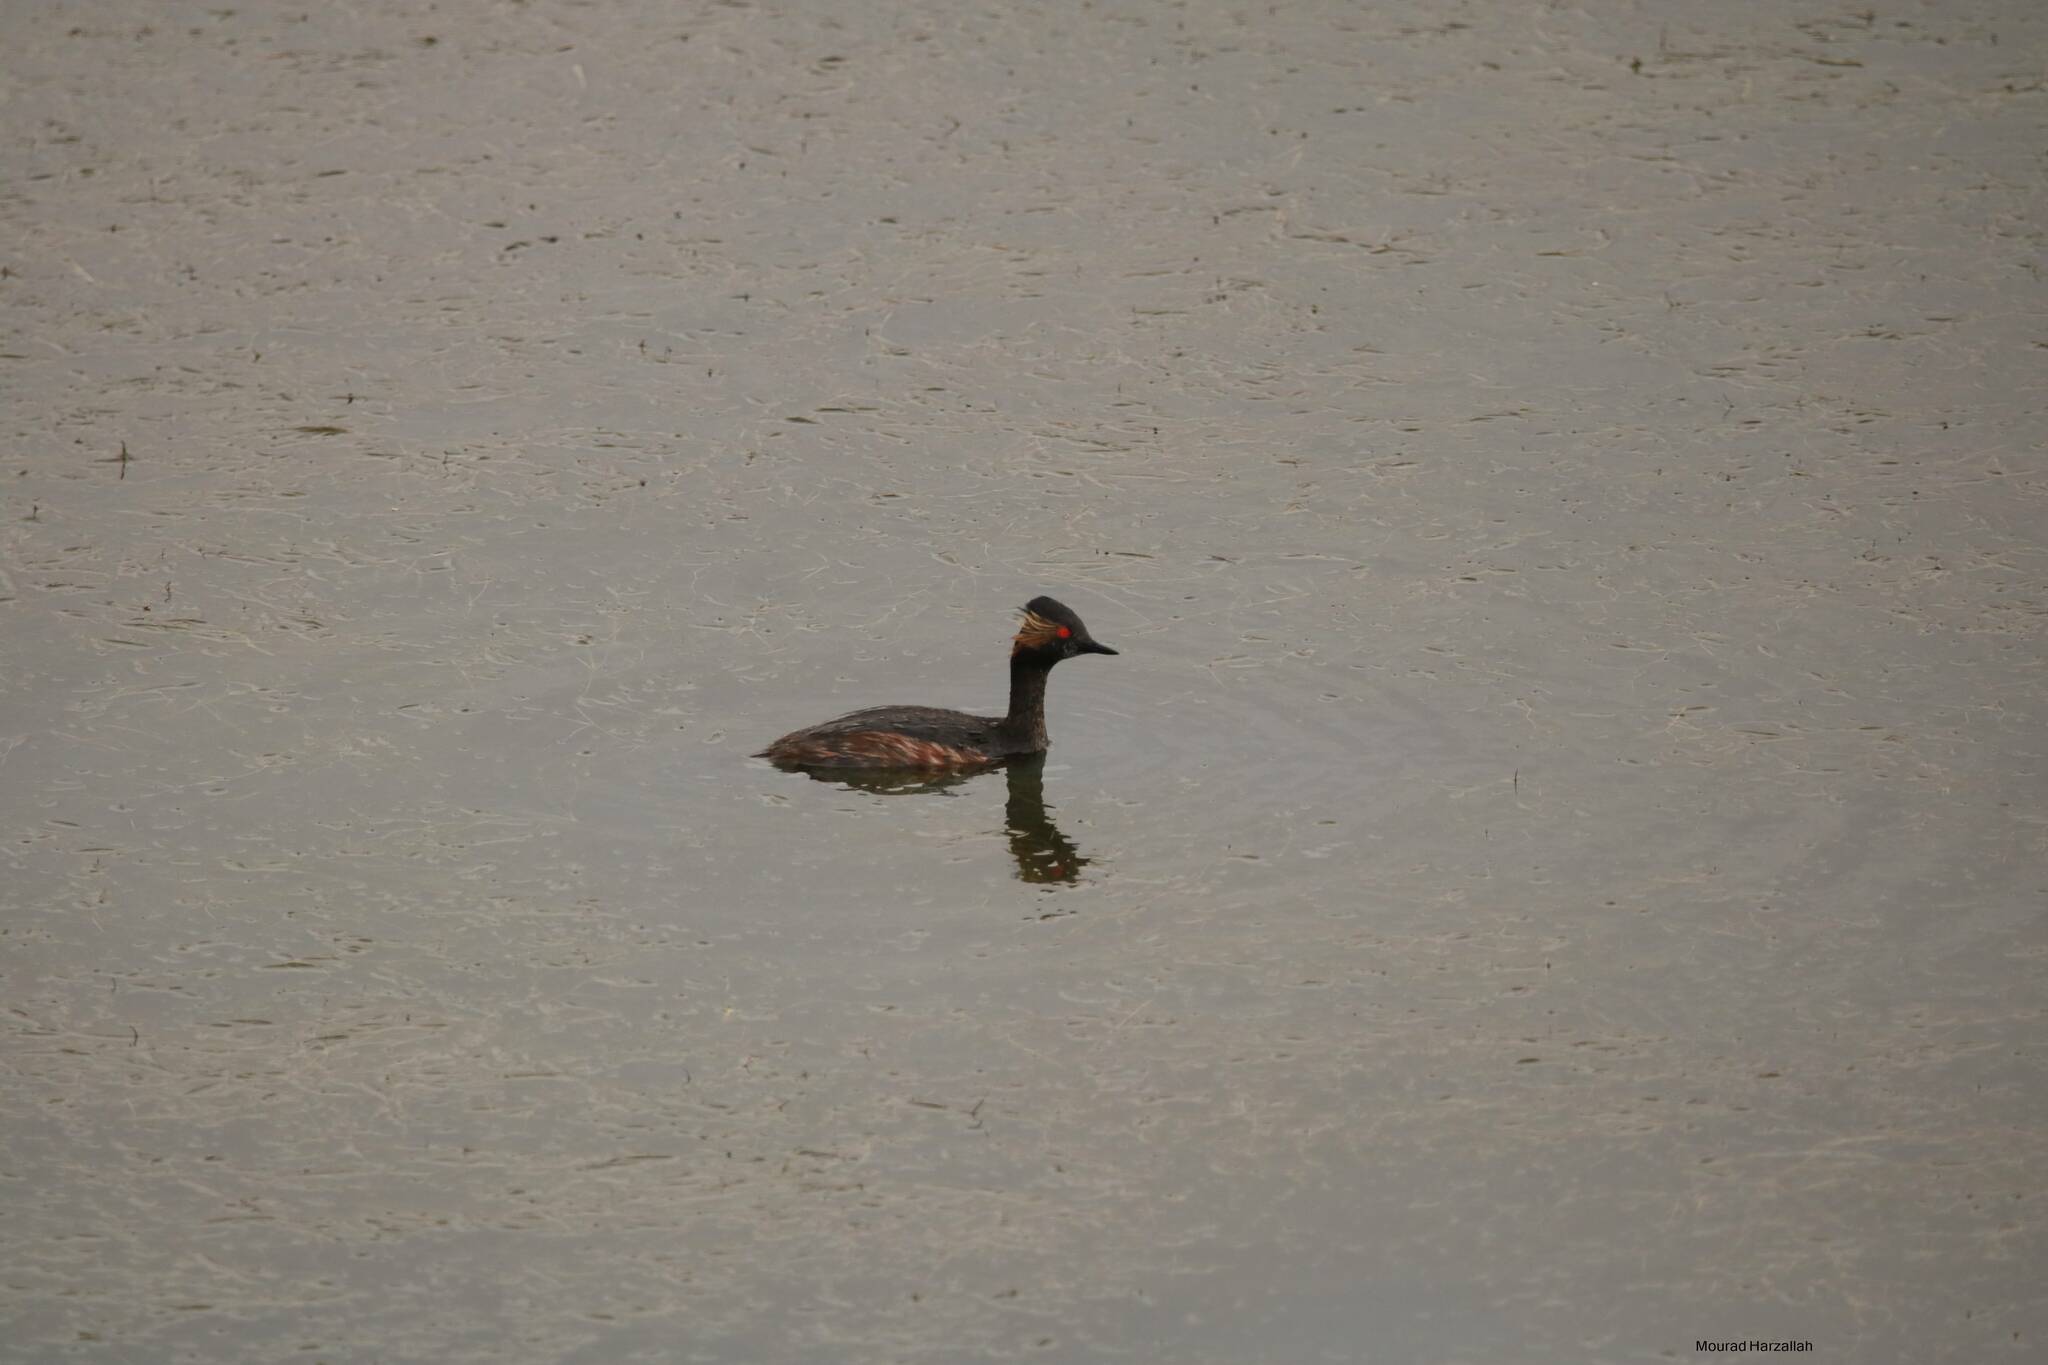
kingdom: Animalia
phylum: Chordata
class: Aves
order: Podicipediformes
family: Podicipedidae
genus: Podiceps
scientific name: Podiceps nigricollis
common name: Black-necked grebe
